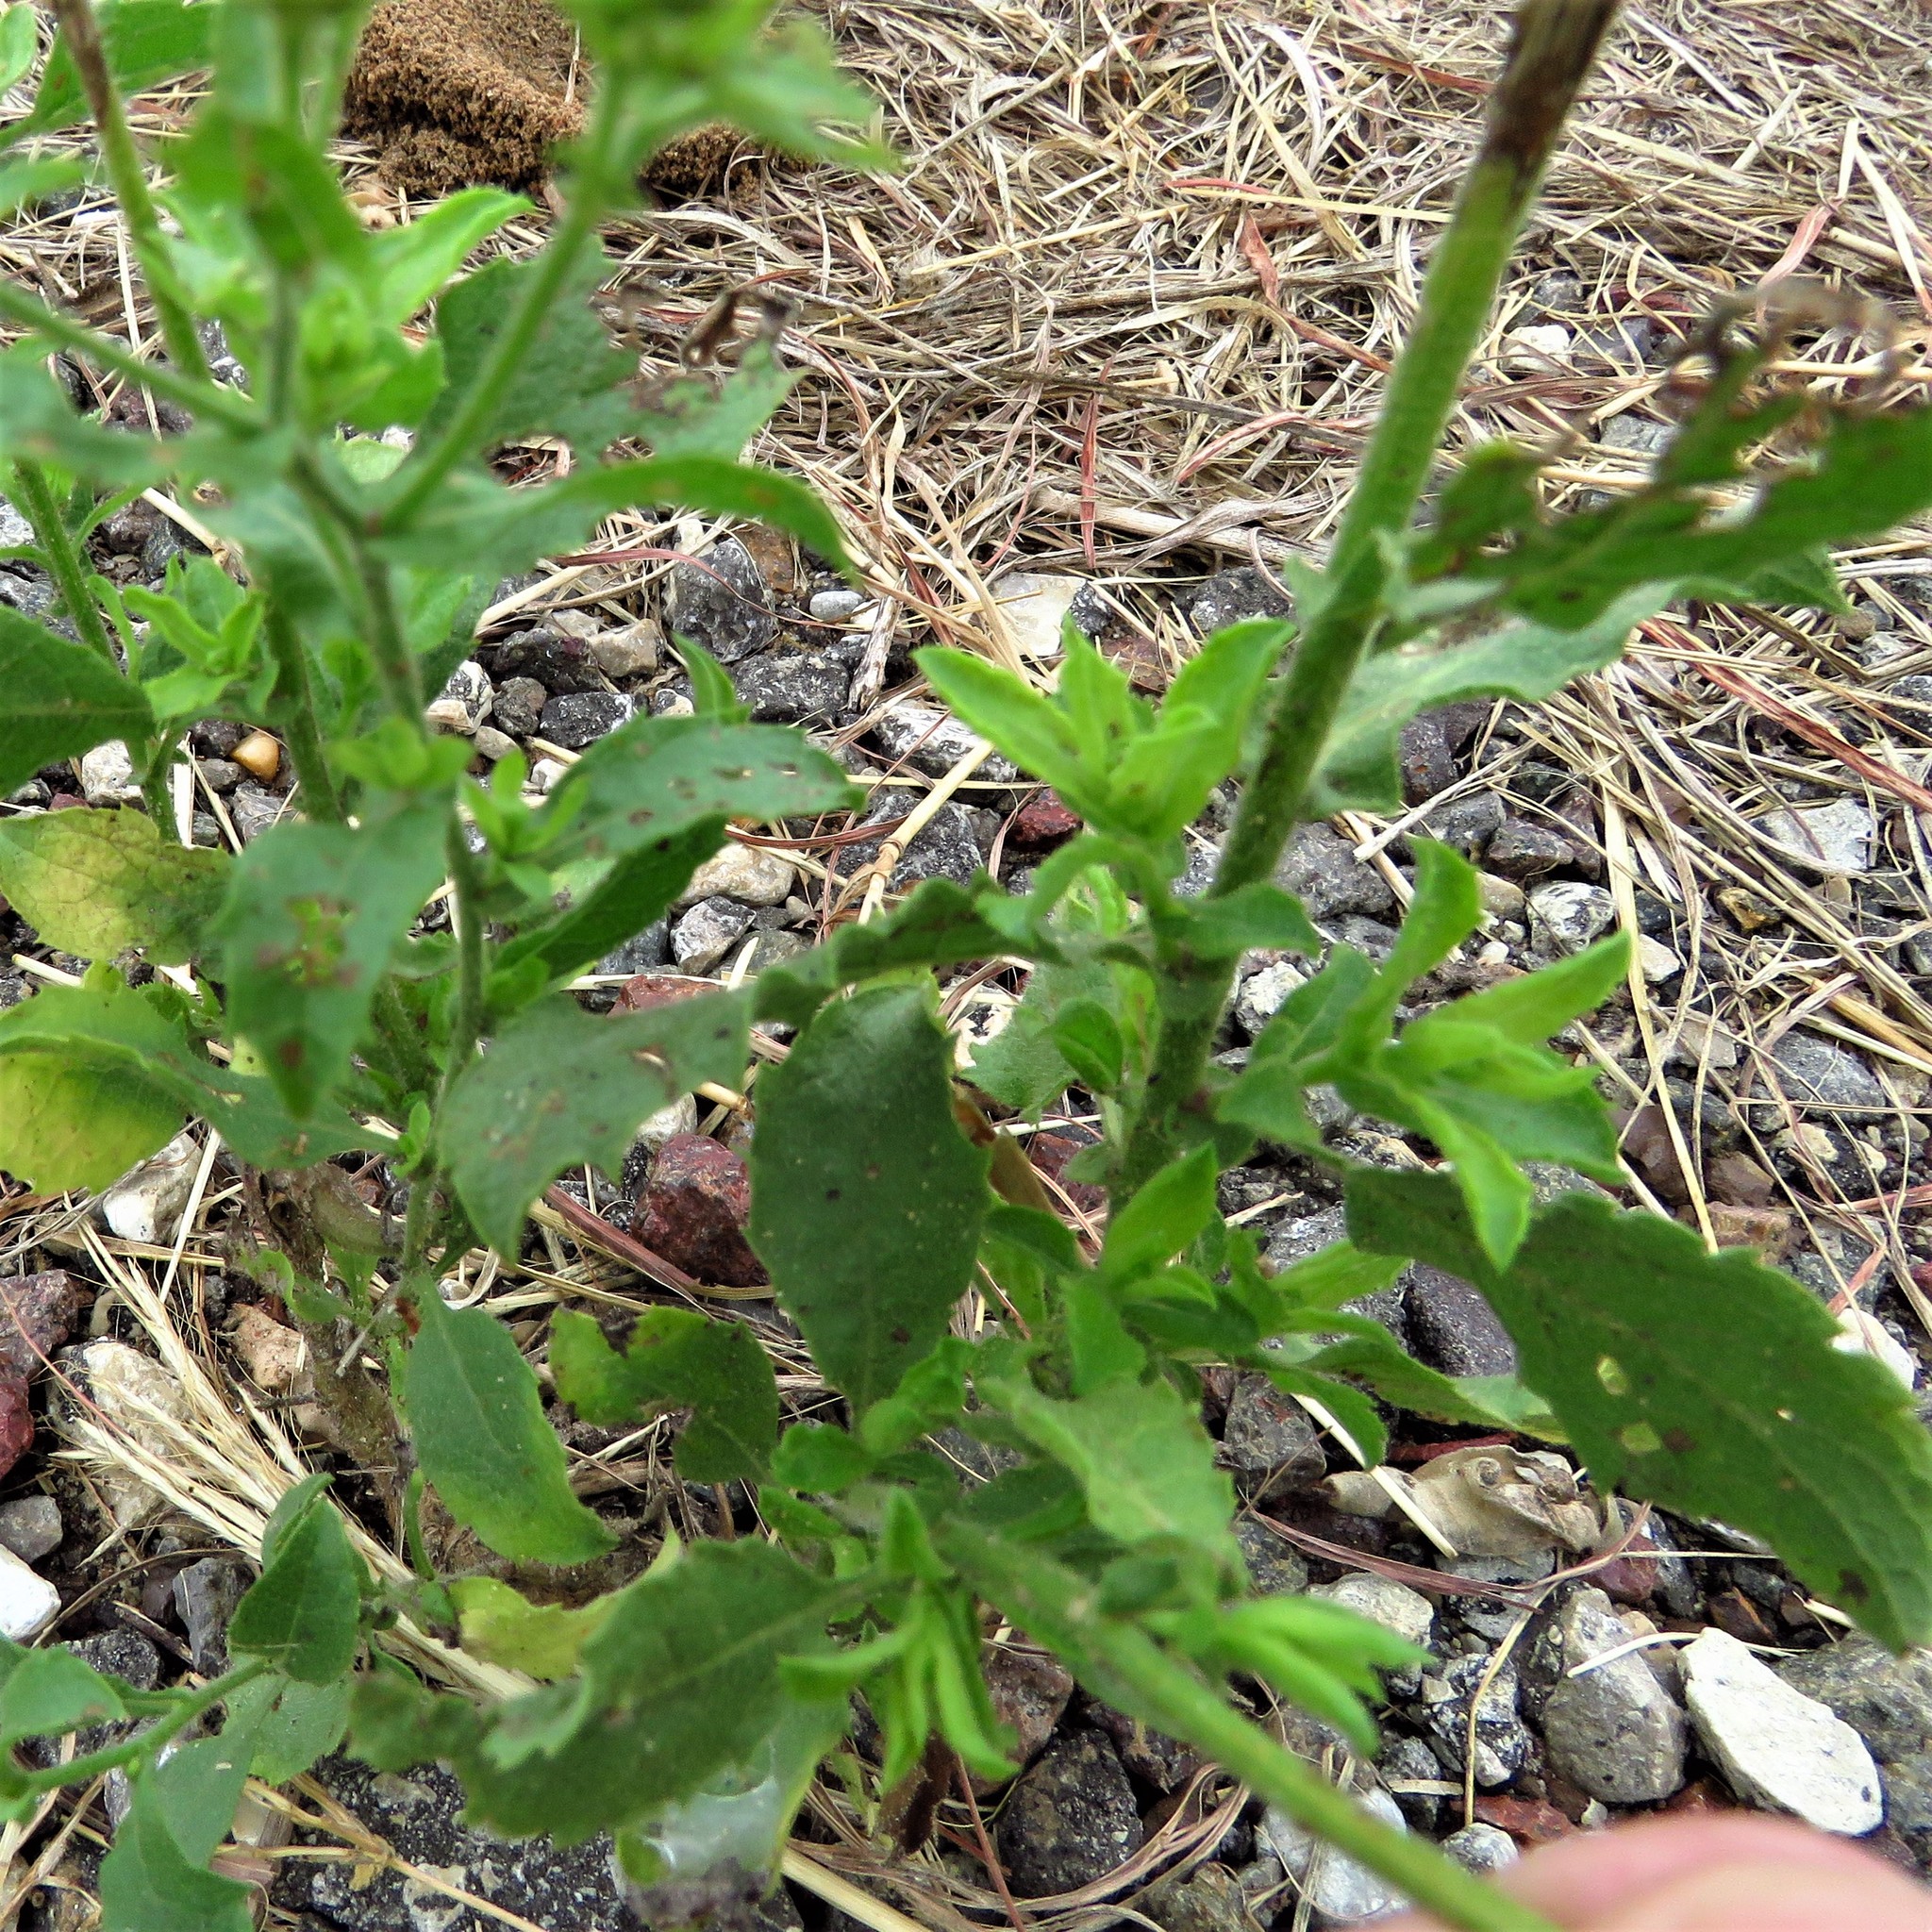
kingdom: Plantae
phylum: Tracheophyta
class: Magnoliopsida
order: Asterales
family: Asteraceae
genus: Heterotheca
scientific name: Heterotheca subaxillaris
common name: Camphorweed
